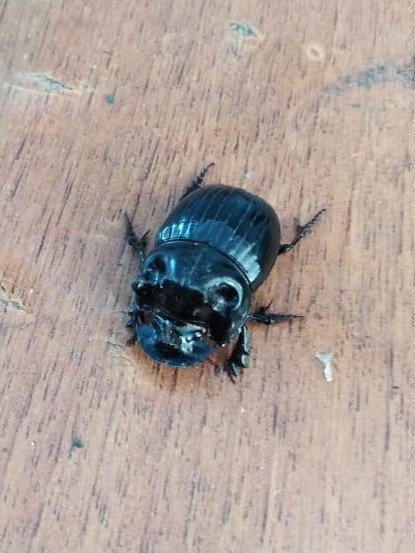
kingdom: Animalia
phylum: Arthropoda
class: Insecta
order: Coleoptera
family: Scarabaeidae
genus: Copris
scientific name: Copris lunaris
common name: Horned dung beetle
